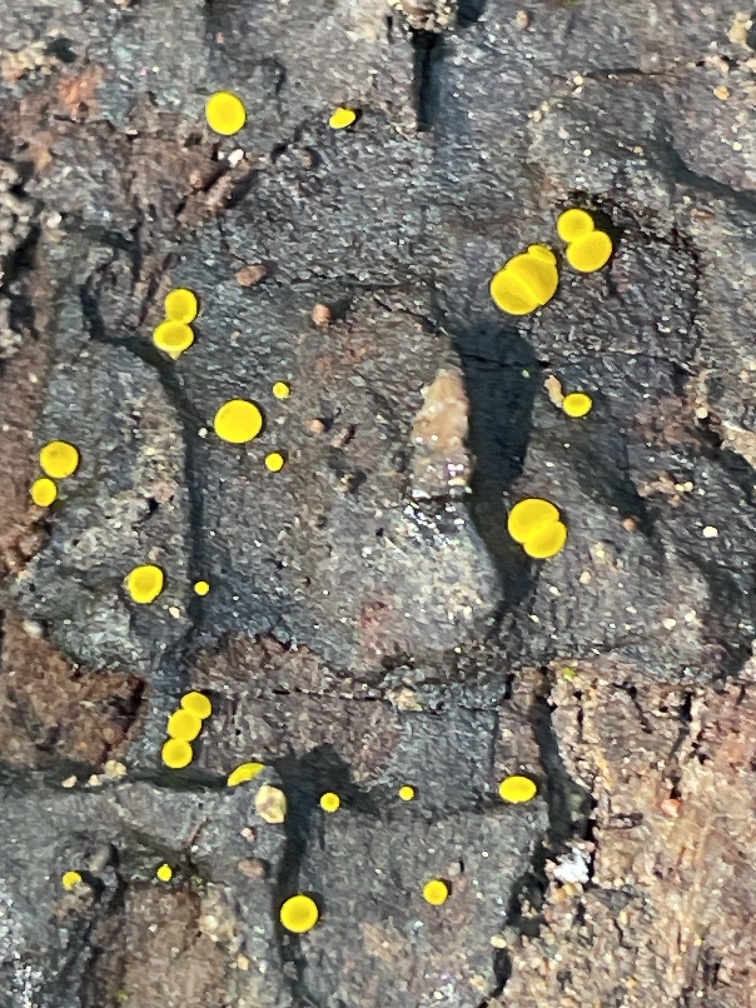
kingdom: Fungi
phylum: Ascomycota
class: Leotiomycetes
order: Helotiales
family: Pezizellaceae
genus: Calycina
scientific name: Calycina claroflava
